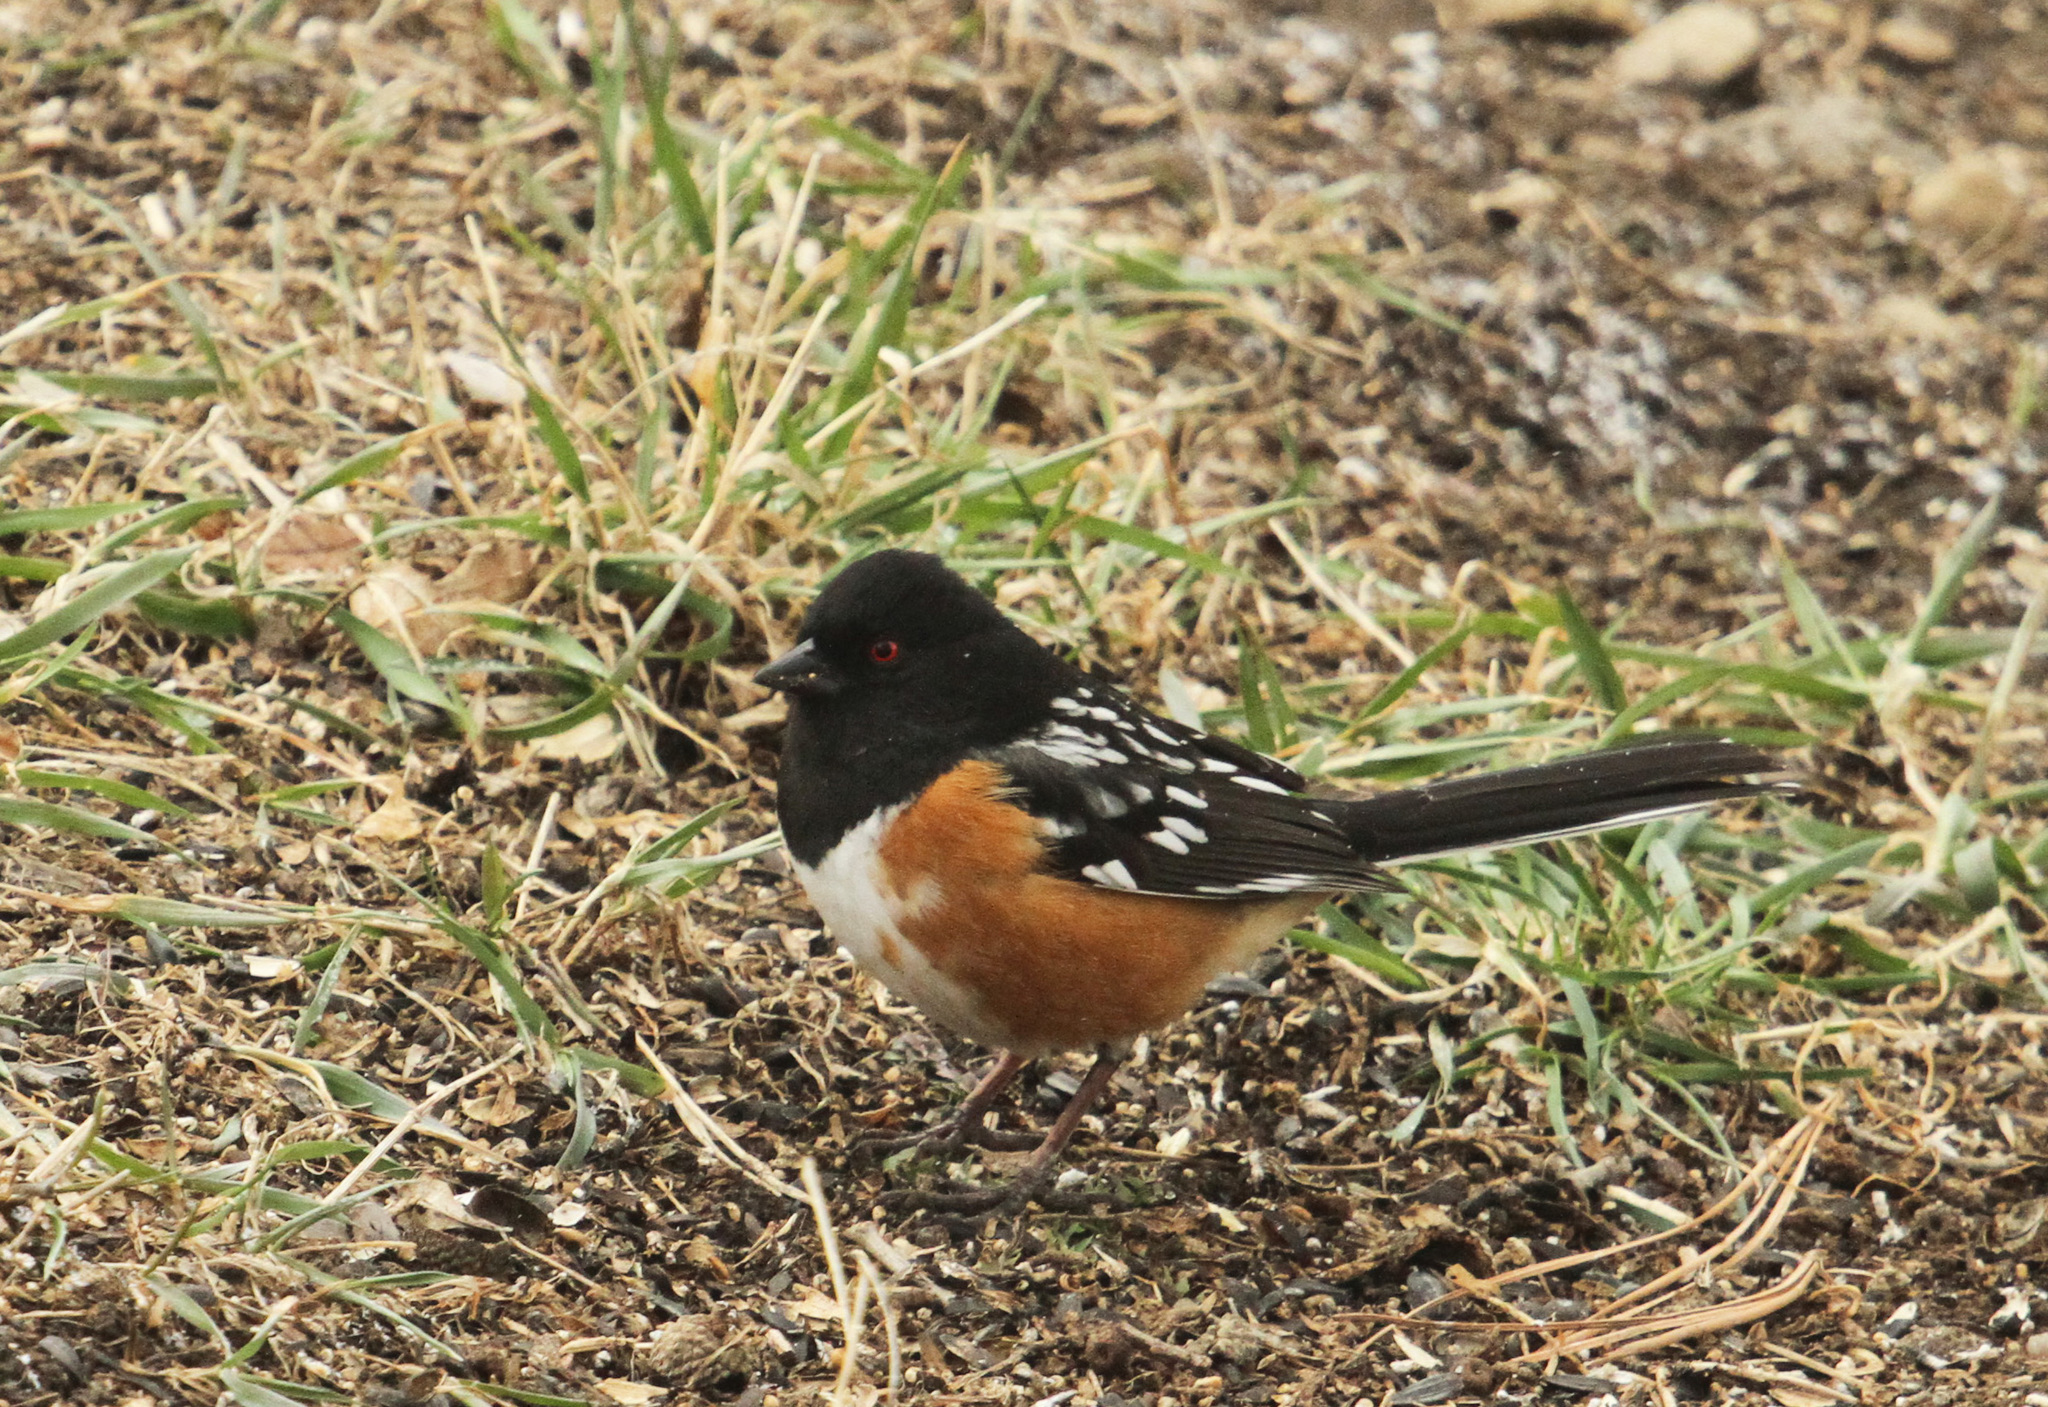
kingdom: Animalia
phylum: Chordata
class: Aves
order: Passeriformes
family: Passerellidae
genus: Pipilo
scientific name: Pipilo maculatus
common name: Spotted towhee
